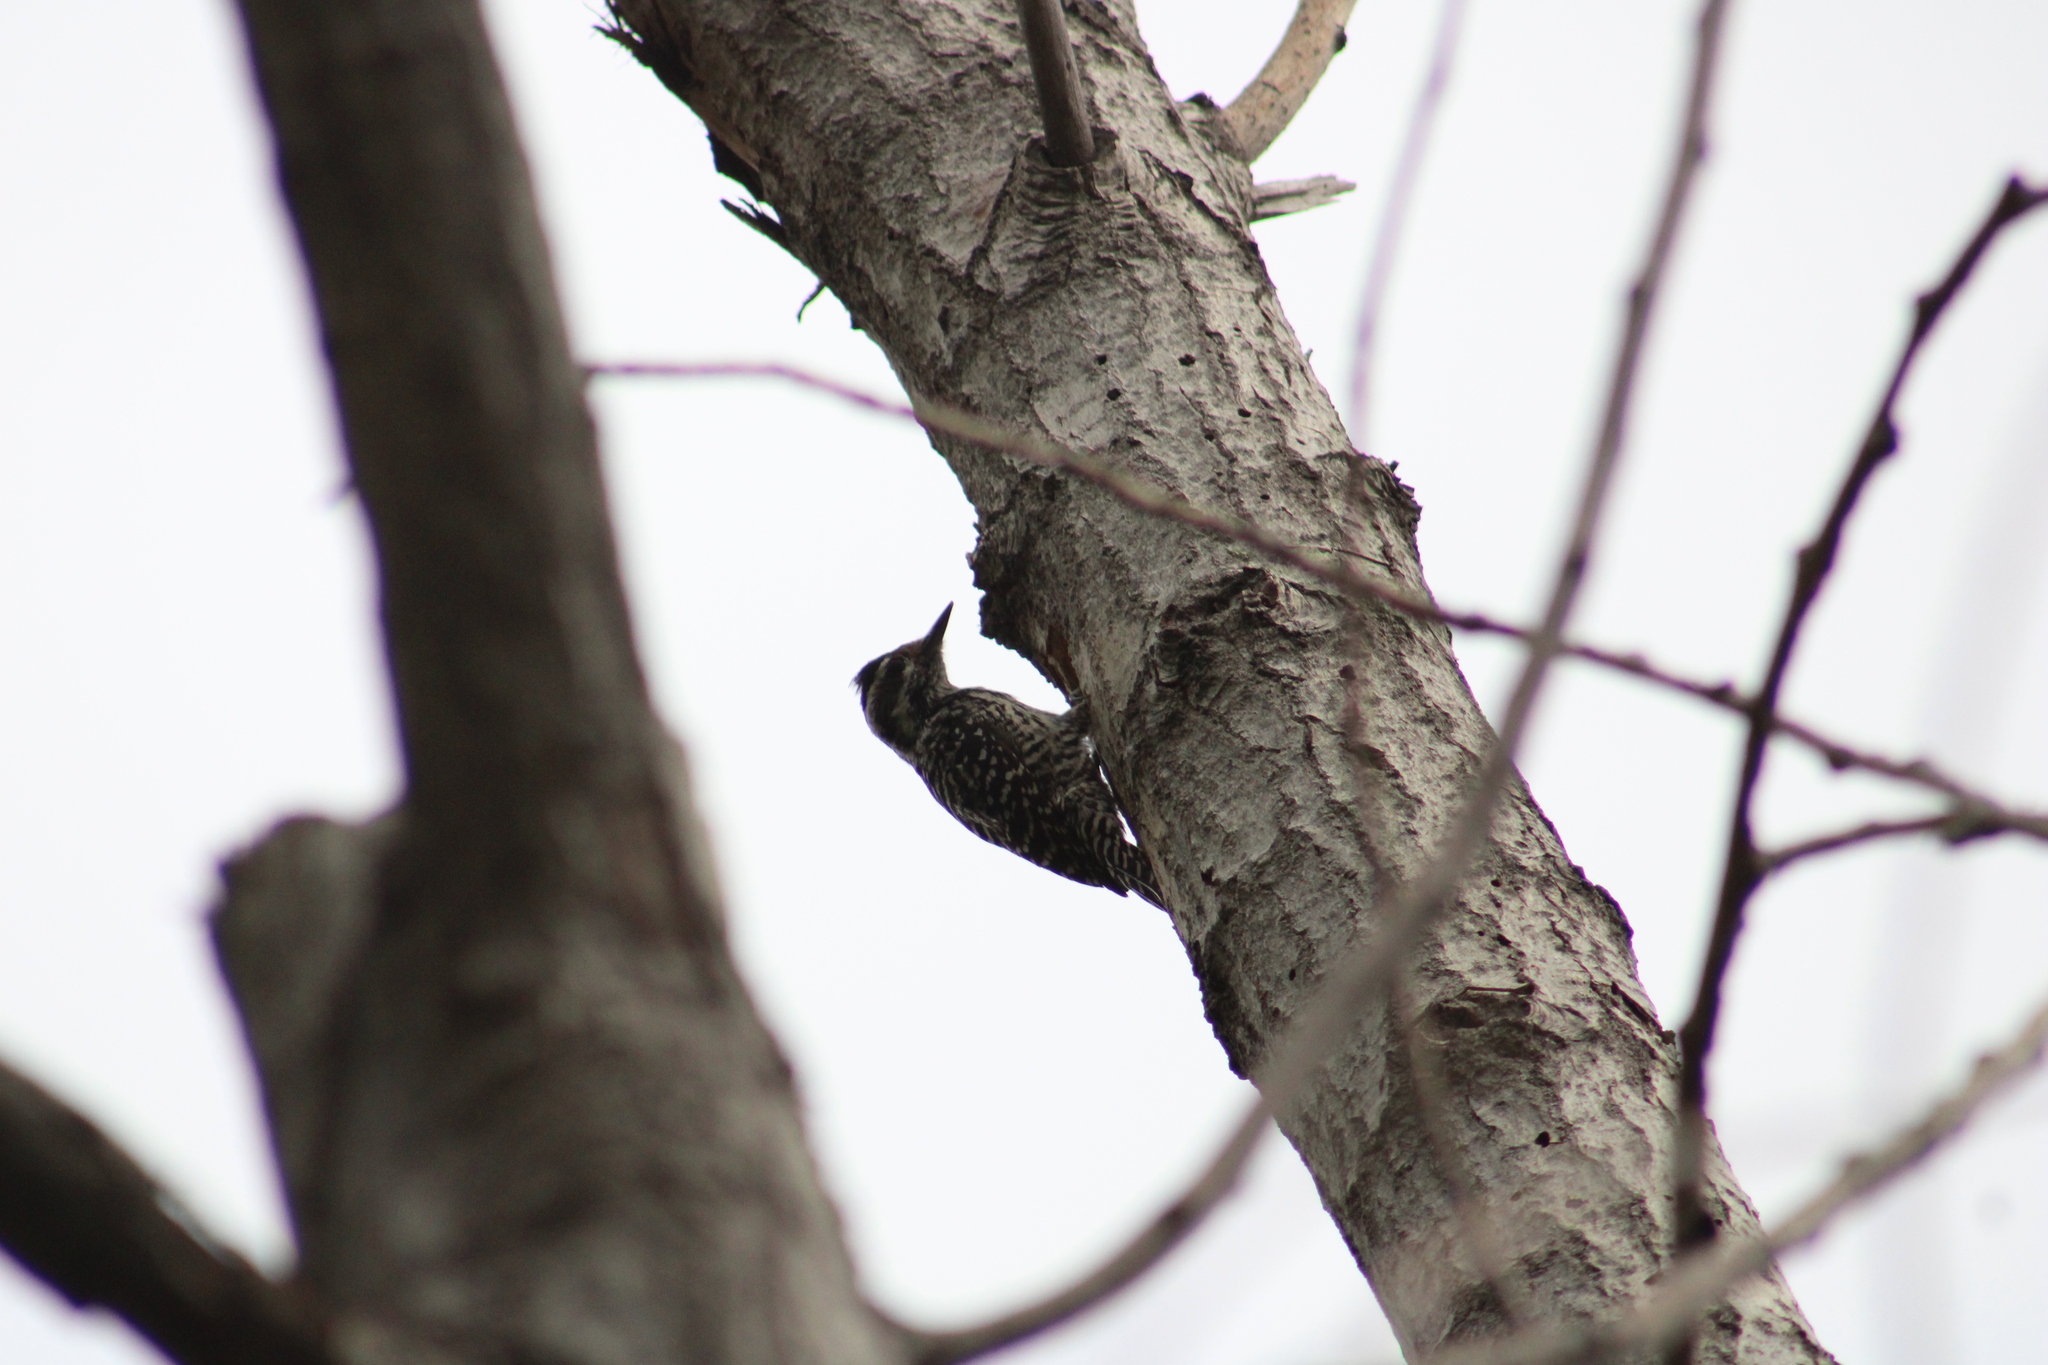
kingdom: Animalia
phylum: Chordata
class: Aves
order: Piciformes
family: Picidae
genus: Veniliornis
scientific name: Veniliornis lignarius
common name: Striped woodpecker
